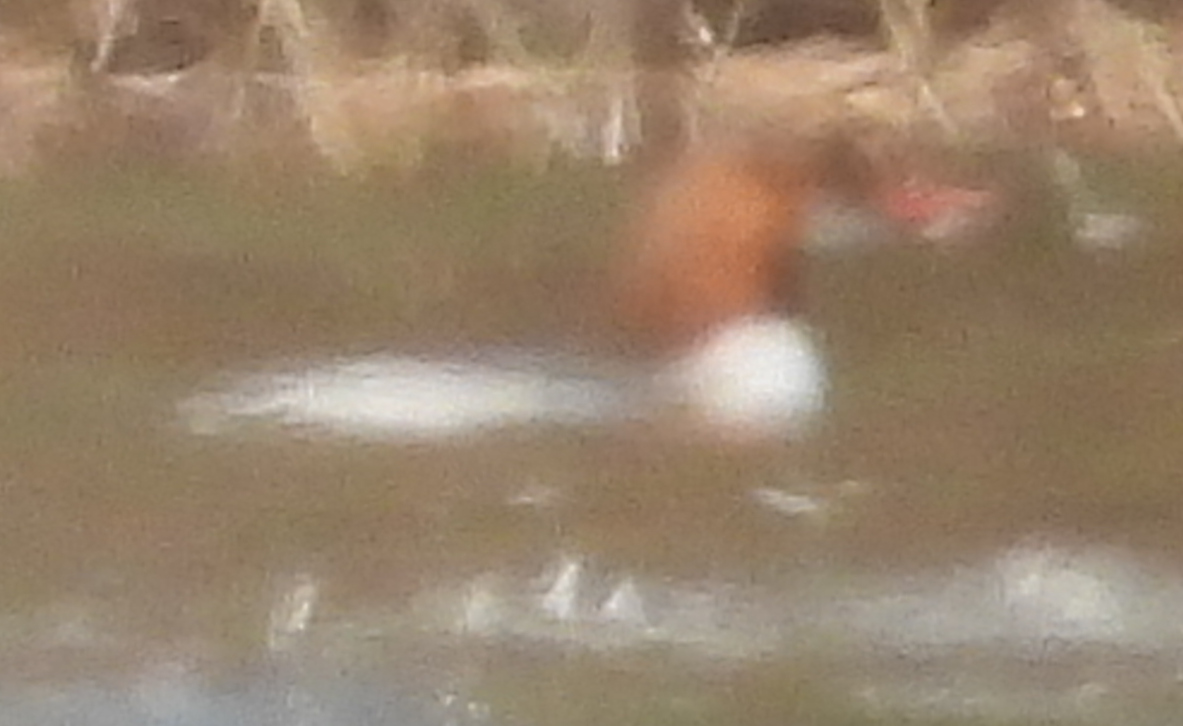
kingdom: Animalia
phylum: Chordata
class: Aves
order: Anseriformes
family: Anatidae
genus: Mergus
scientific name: Mergus merganser
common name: Common merganser
